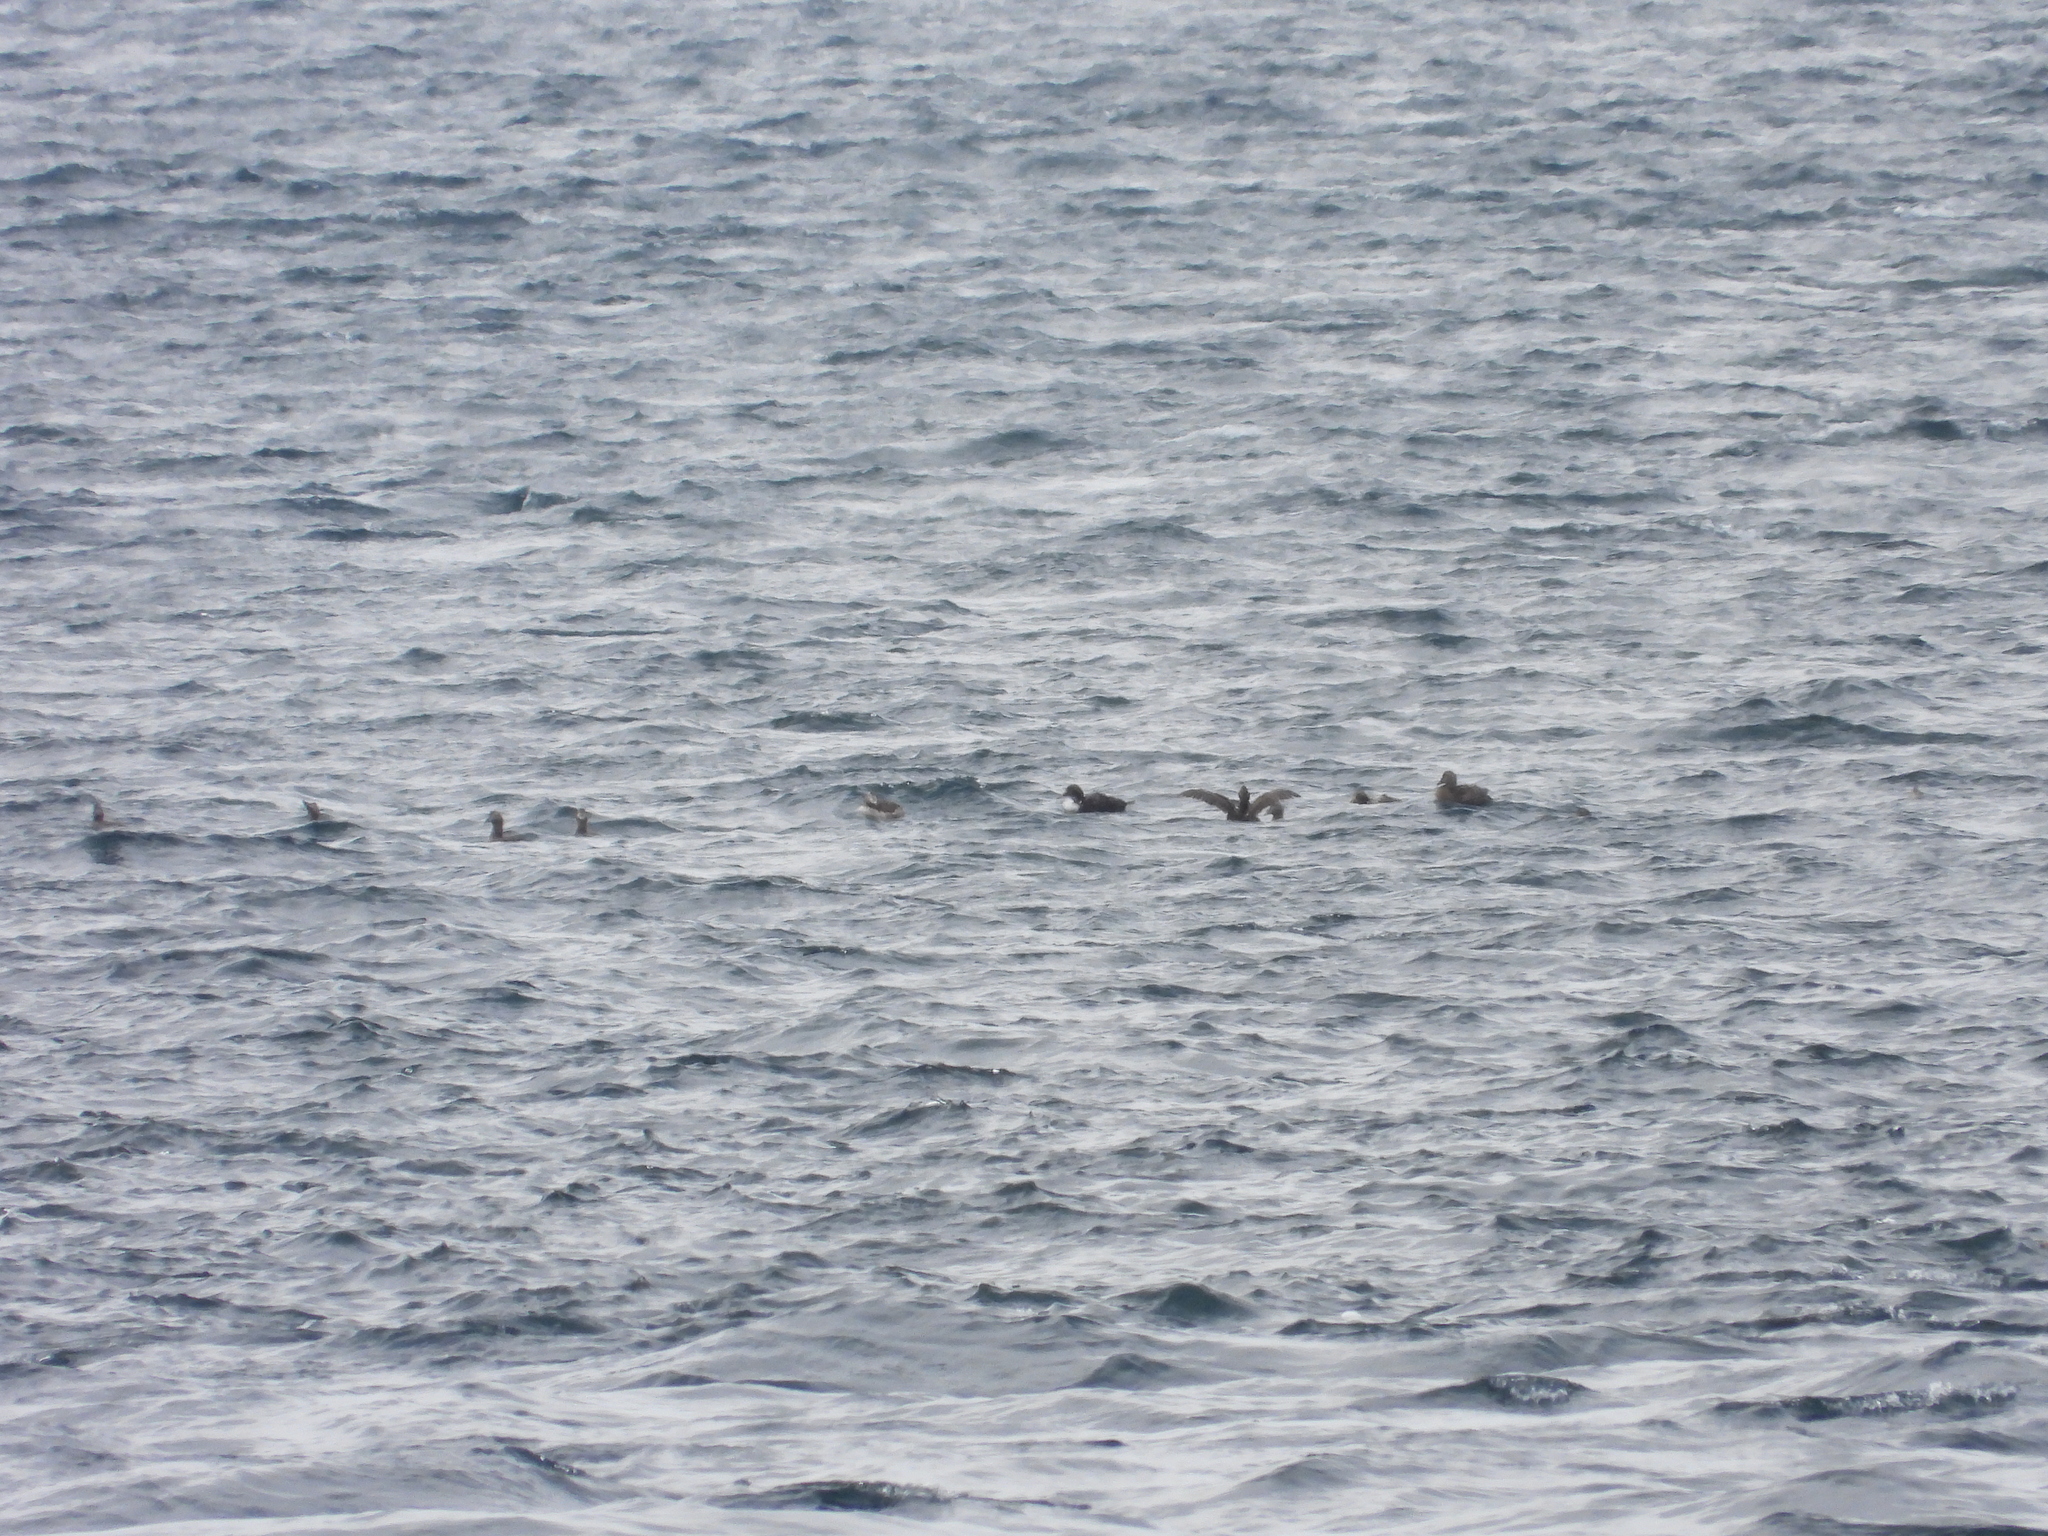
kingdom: Animalia
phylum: Chordata
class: Aves
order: Anseriformes
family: Anatidae
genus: Somateria
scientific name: Somateria mollissima
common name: Common eider
